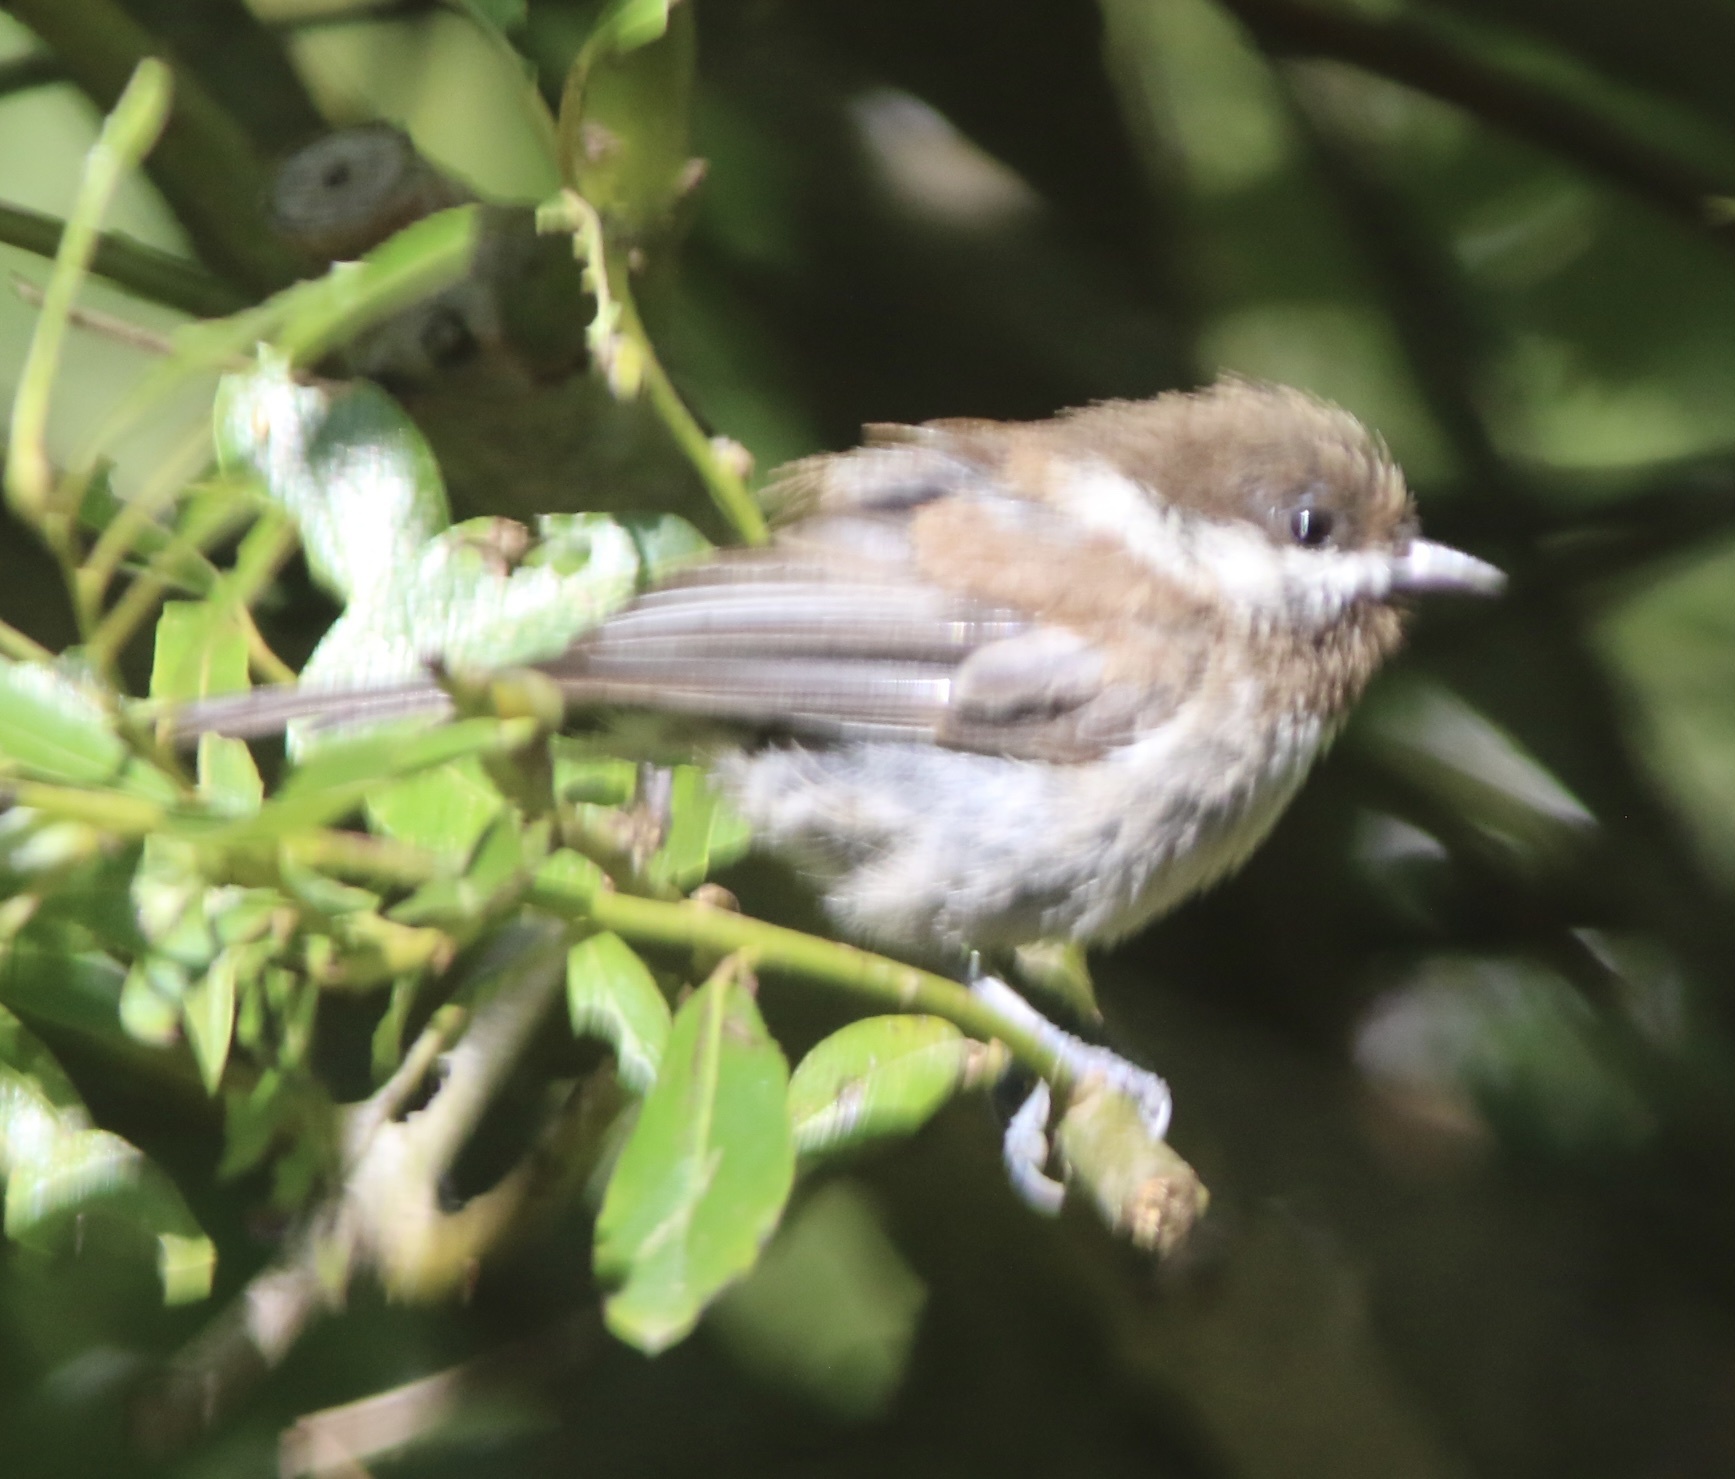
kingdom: Animalia
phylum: Chordata
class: Aves
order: Passeriformes
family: Paridae
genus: Poecile
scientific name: Poecile rufescens
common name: Chestnut-backed chickadee
